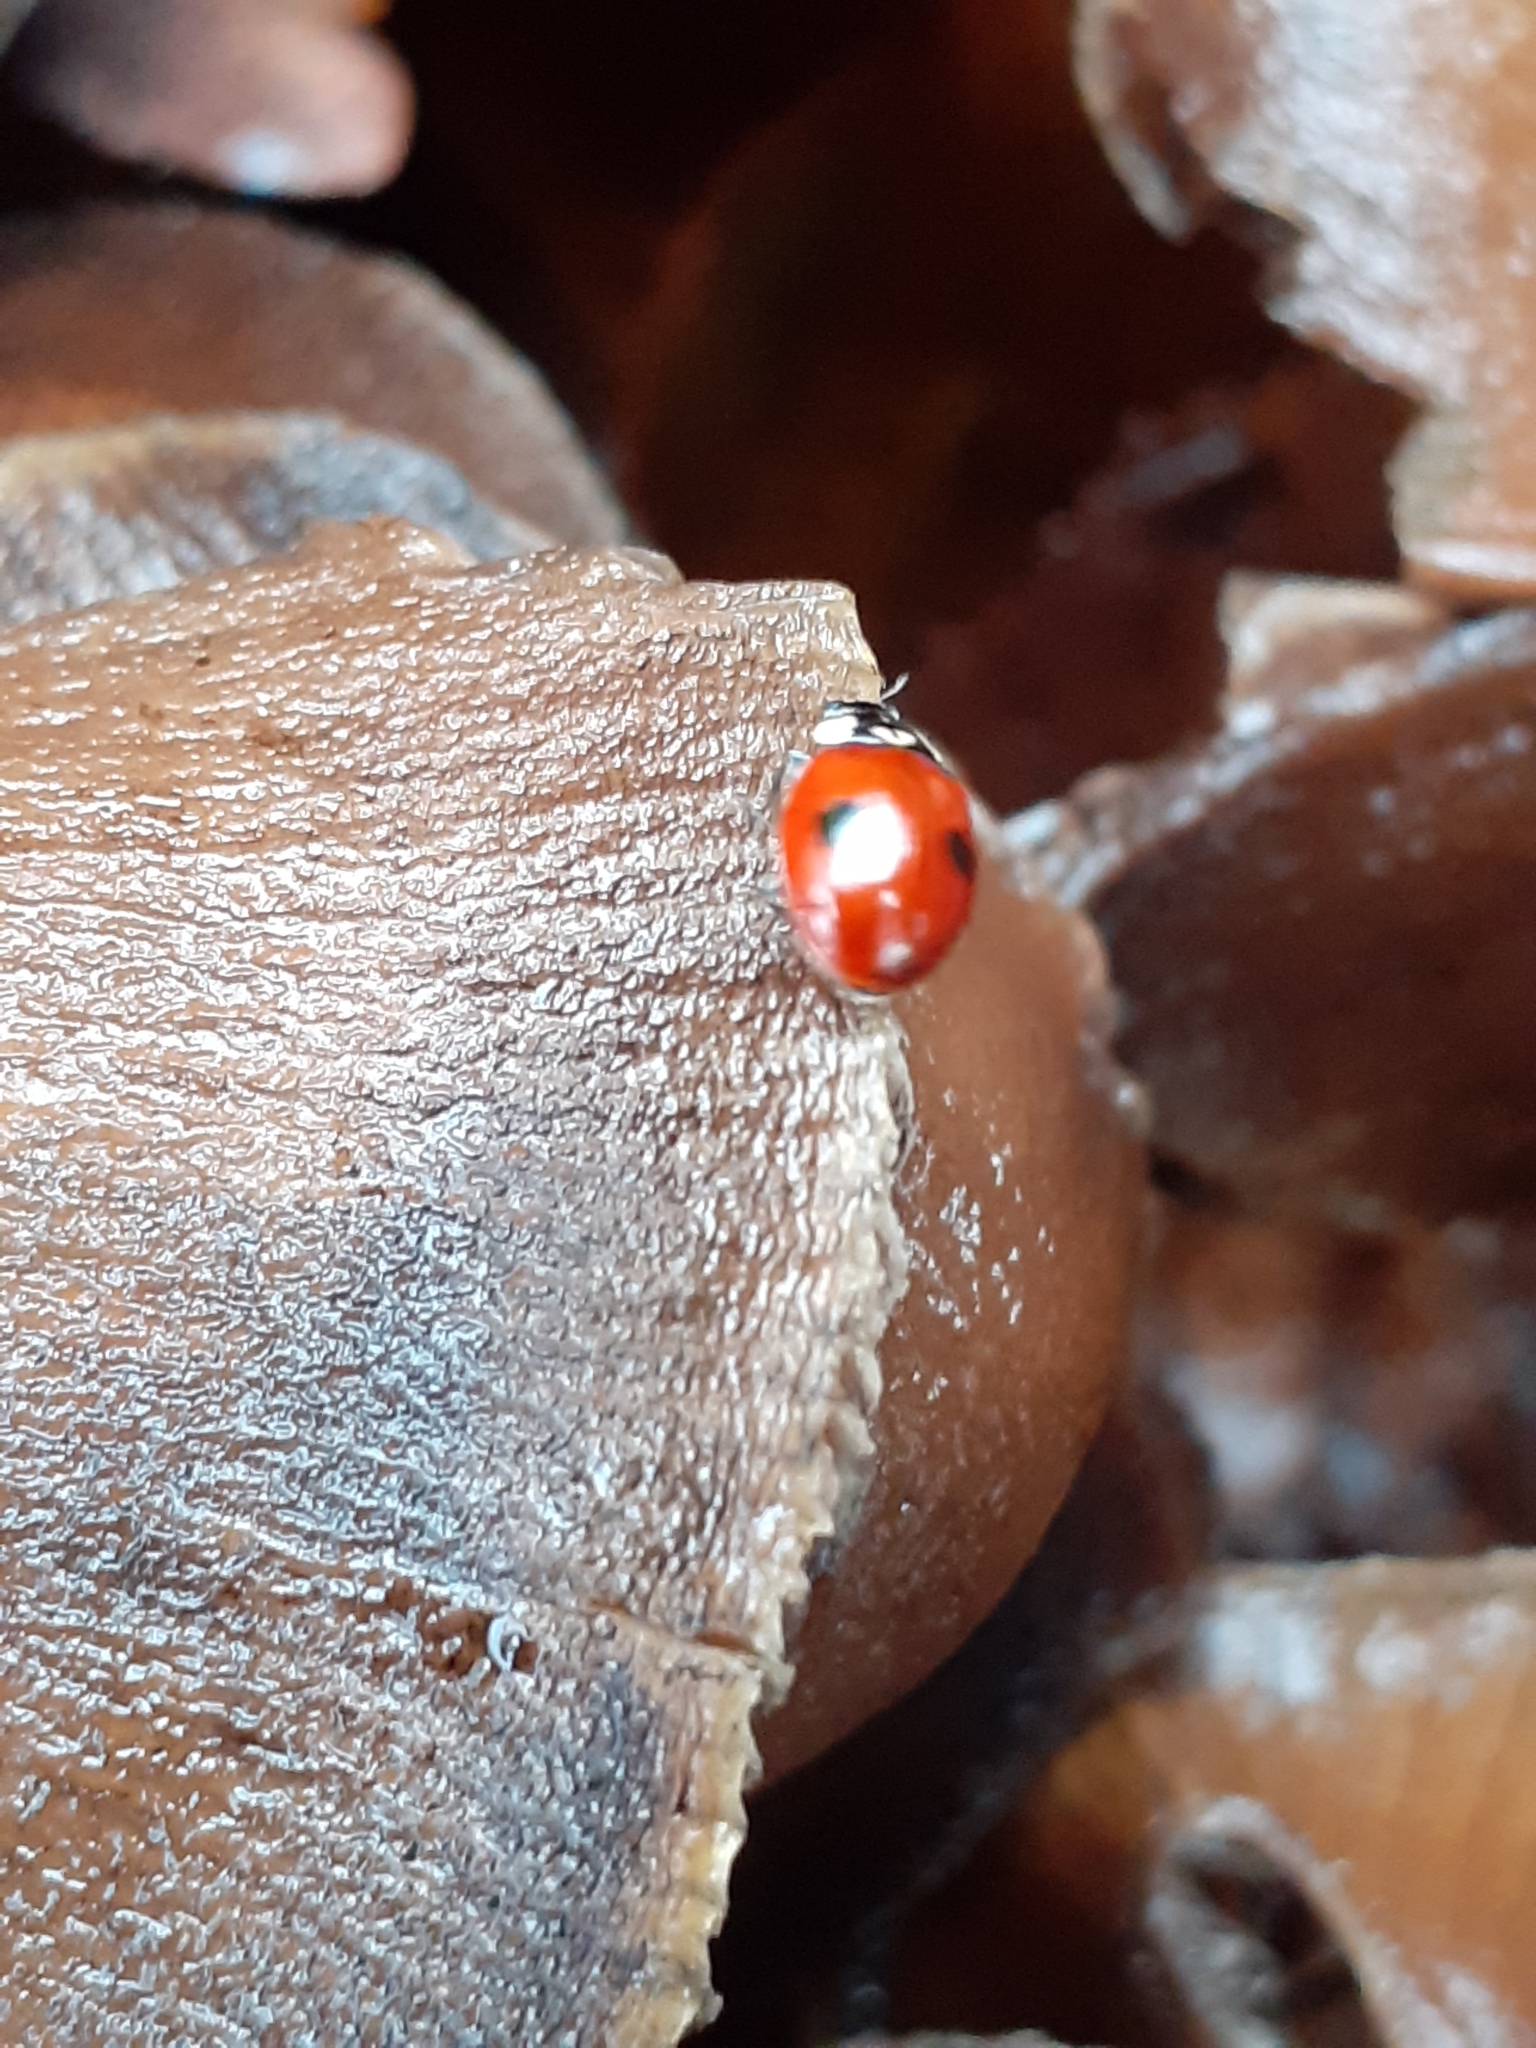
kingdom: Animalia
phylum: Arthropoda
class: Insecta
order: Coleoptera
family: Coccinellidae
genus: Adalia
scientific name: Adalia bipunctata
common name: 2-spot ladybird
